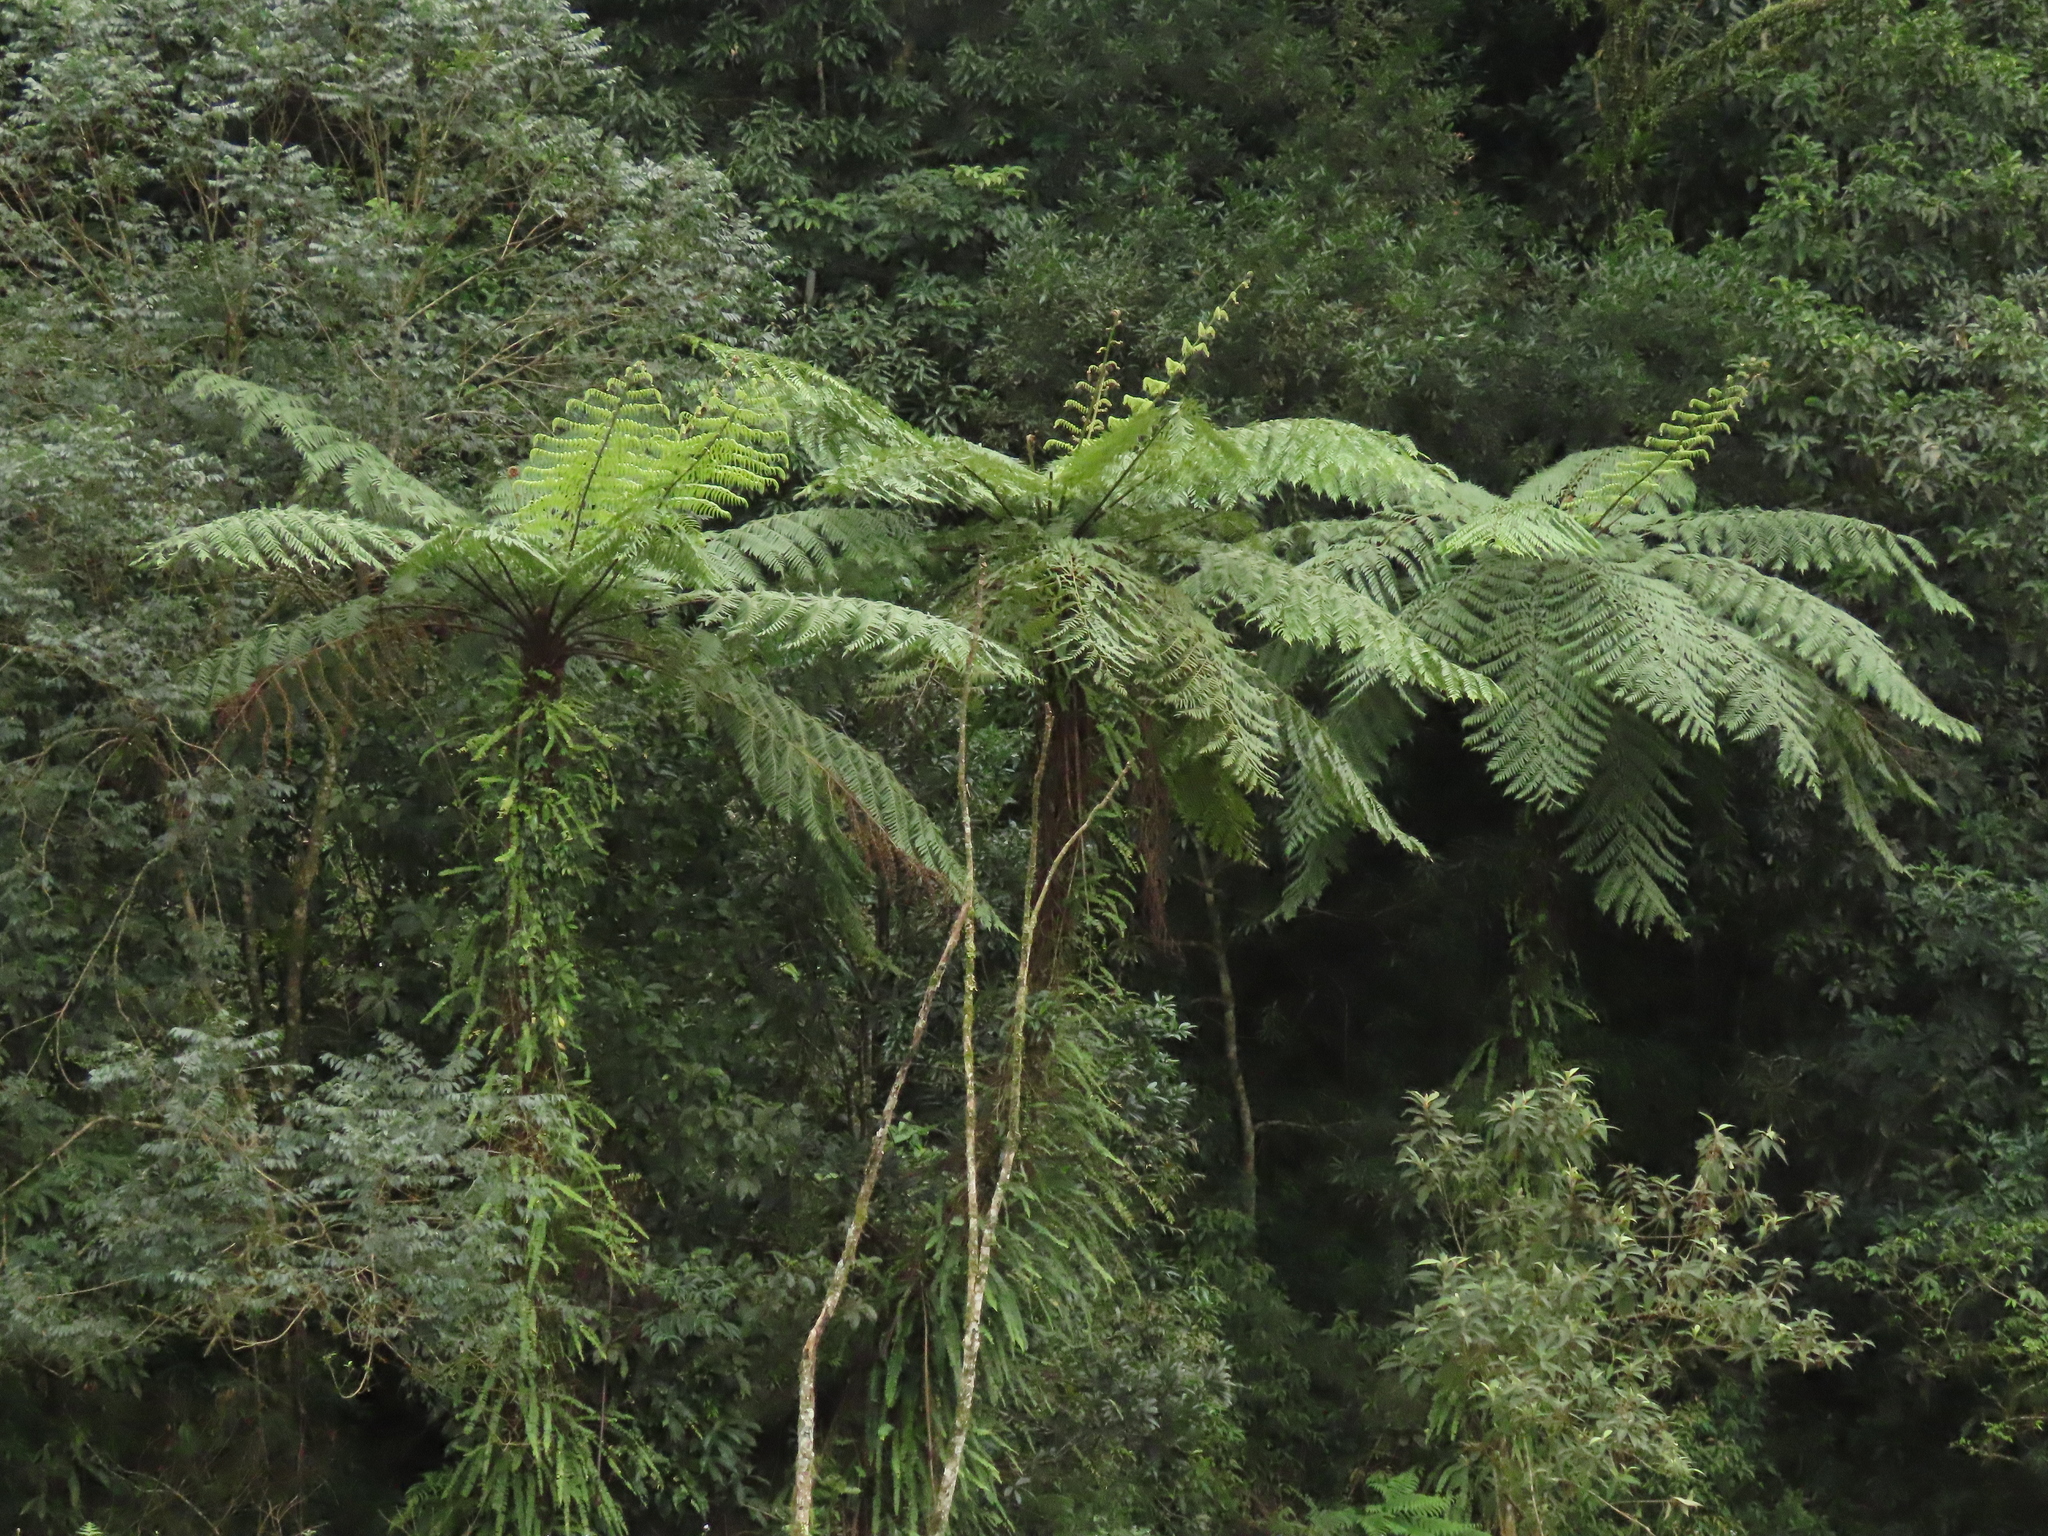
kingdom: Plantae
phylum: Tracheophyta
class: Polypodiopsida
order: Cyatheales
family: Cyatheaceae
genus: Alsophila
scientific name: Alsophila lepifera
